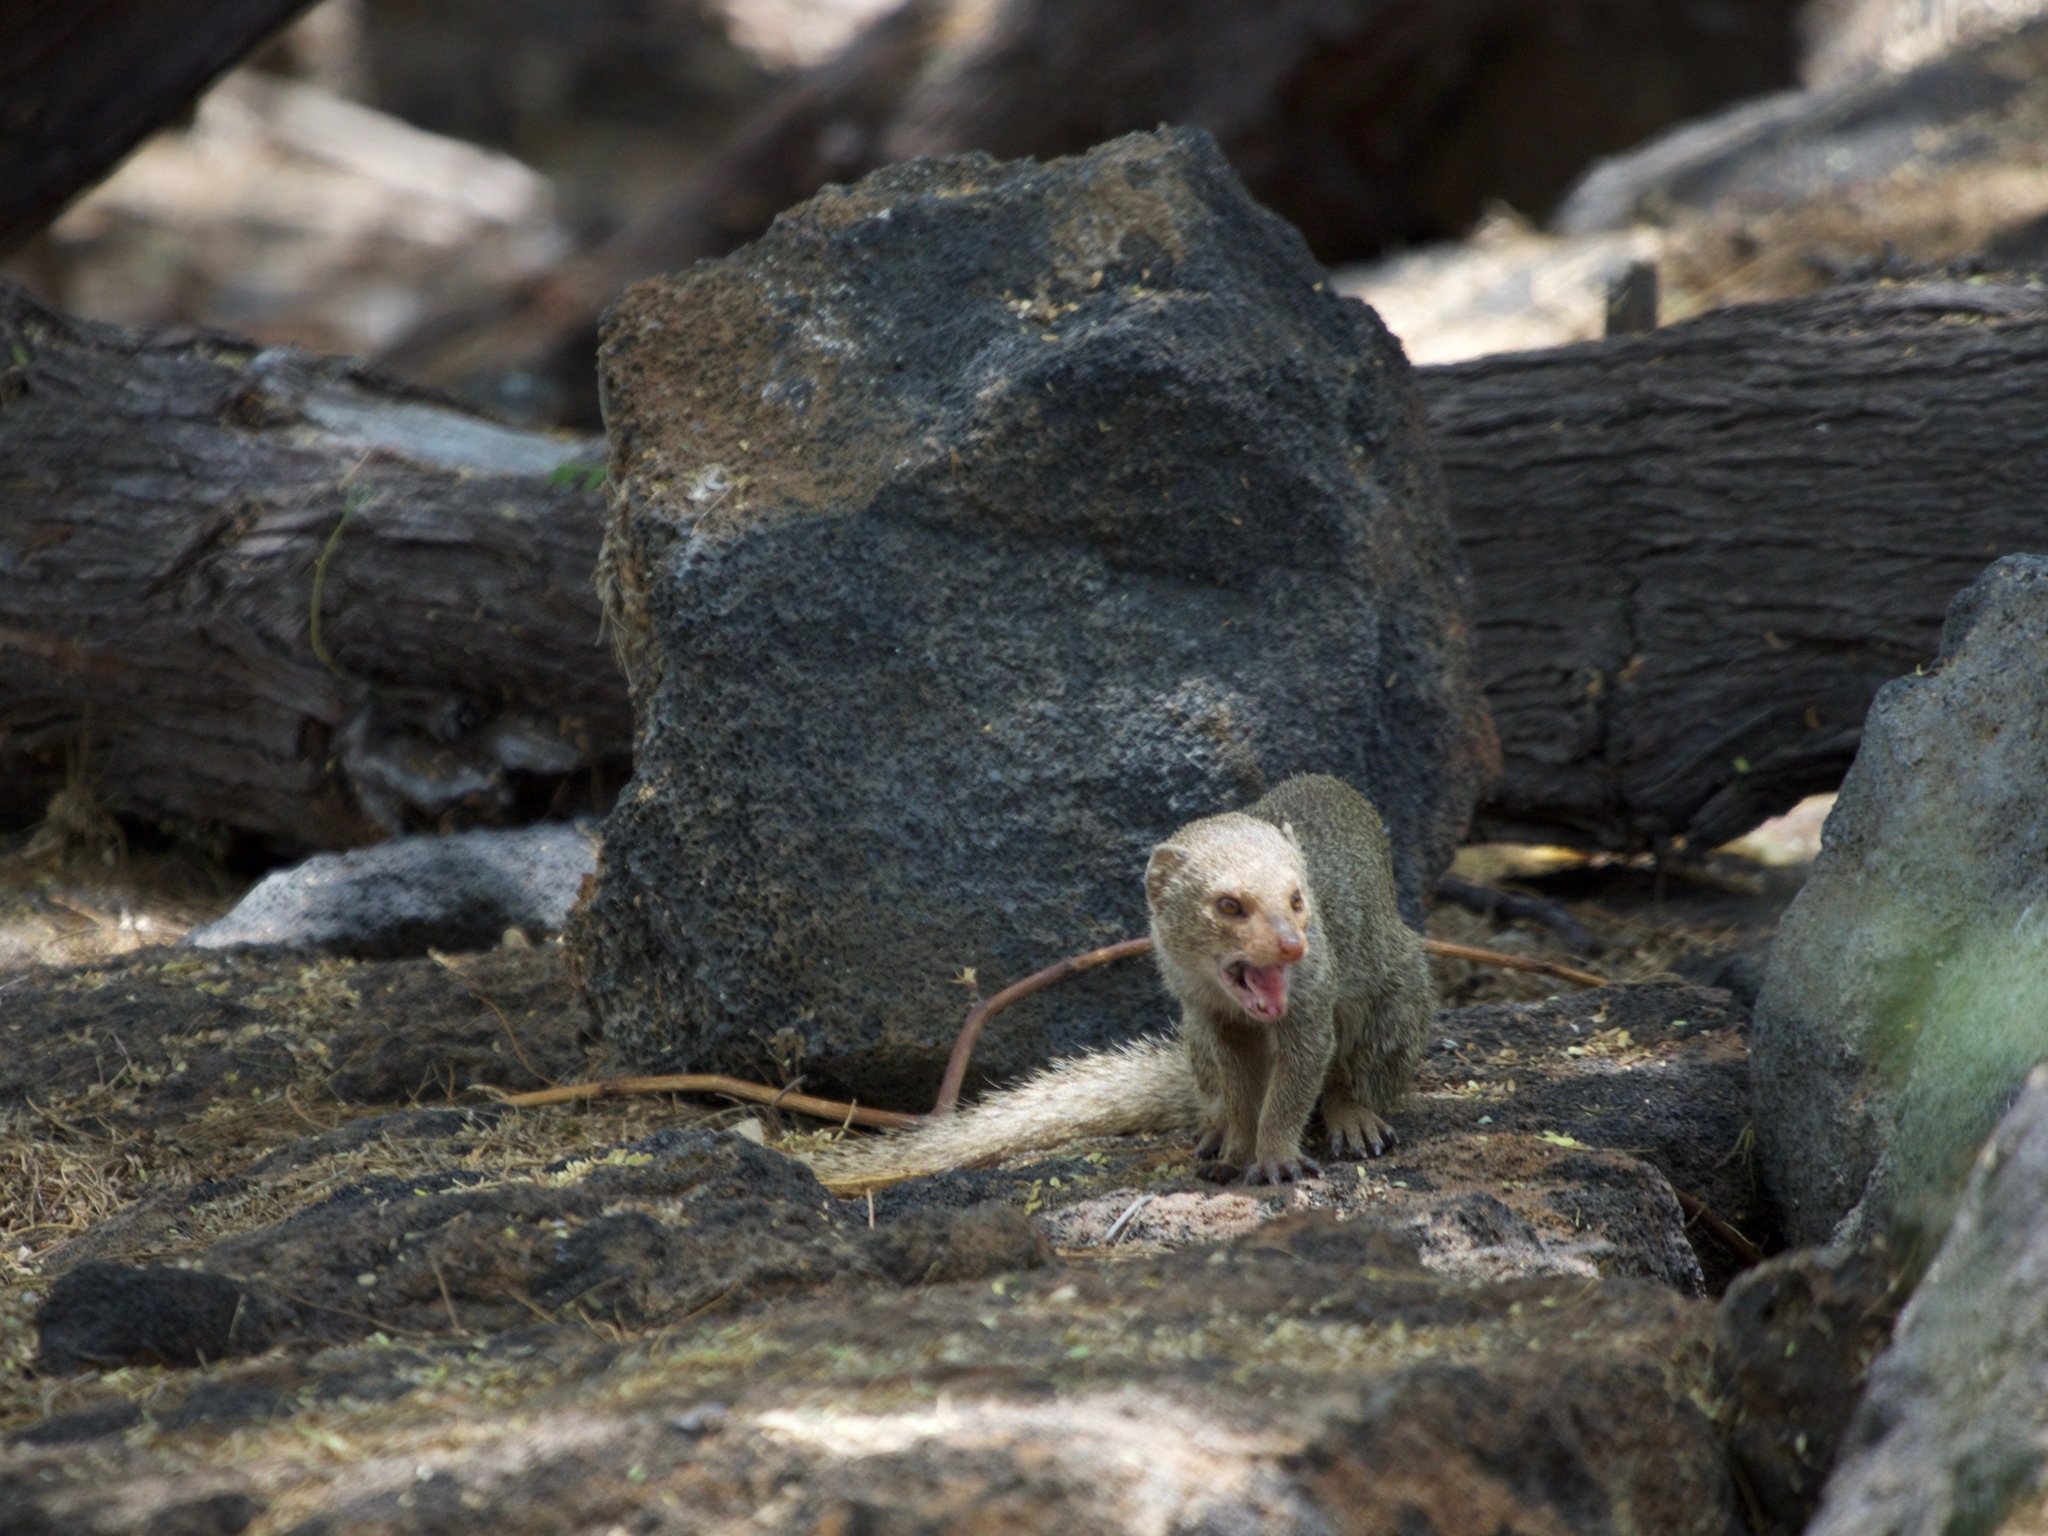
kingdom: Animalia
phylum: Chordata
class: Mammalia
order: Carnivora
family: Herpestidae
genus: Herpestes
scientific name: Herpestes javanicus
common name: Small asian mongoose
